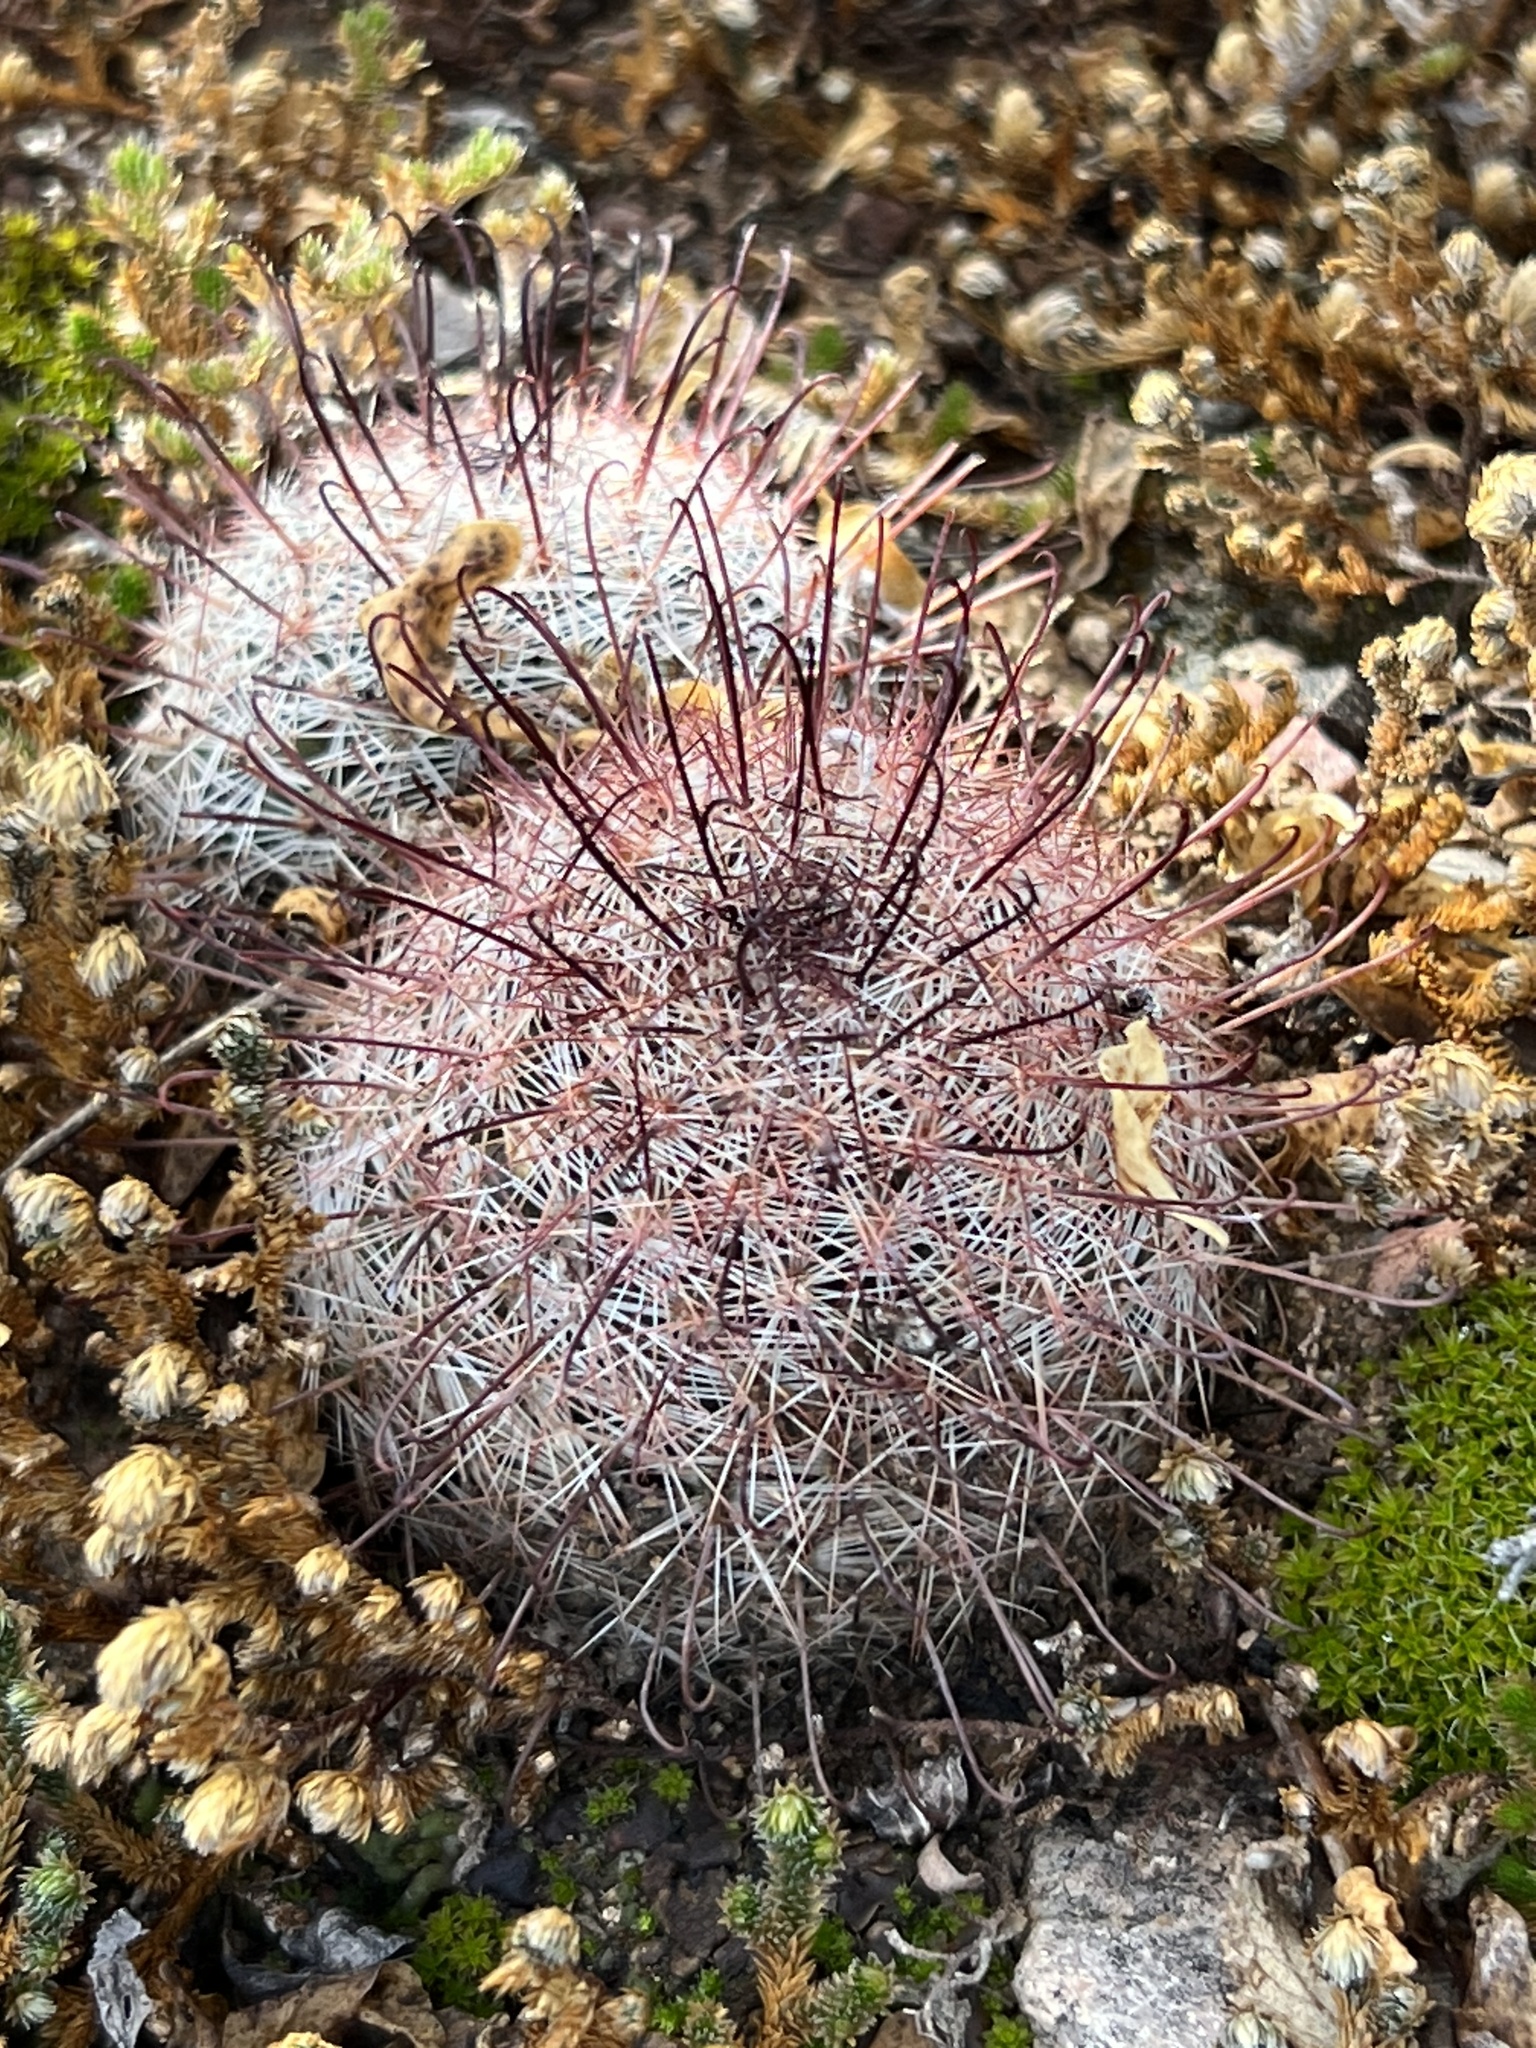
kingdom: Plantae
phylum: Tracheophyta
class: Magnoliopsida
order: Caryophyllales
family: Cactaceae
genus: Cochemiea
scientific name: Cochemiea grahamii
